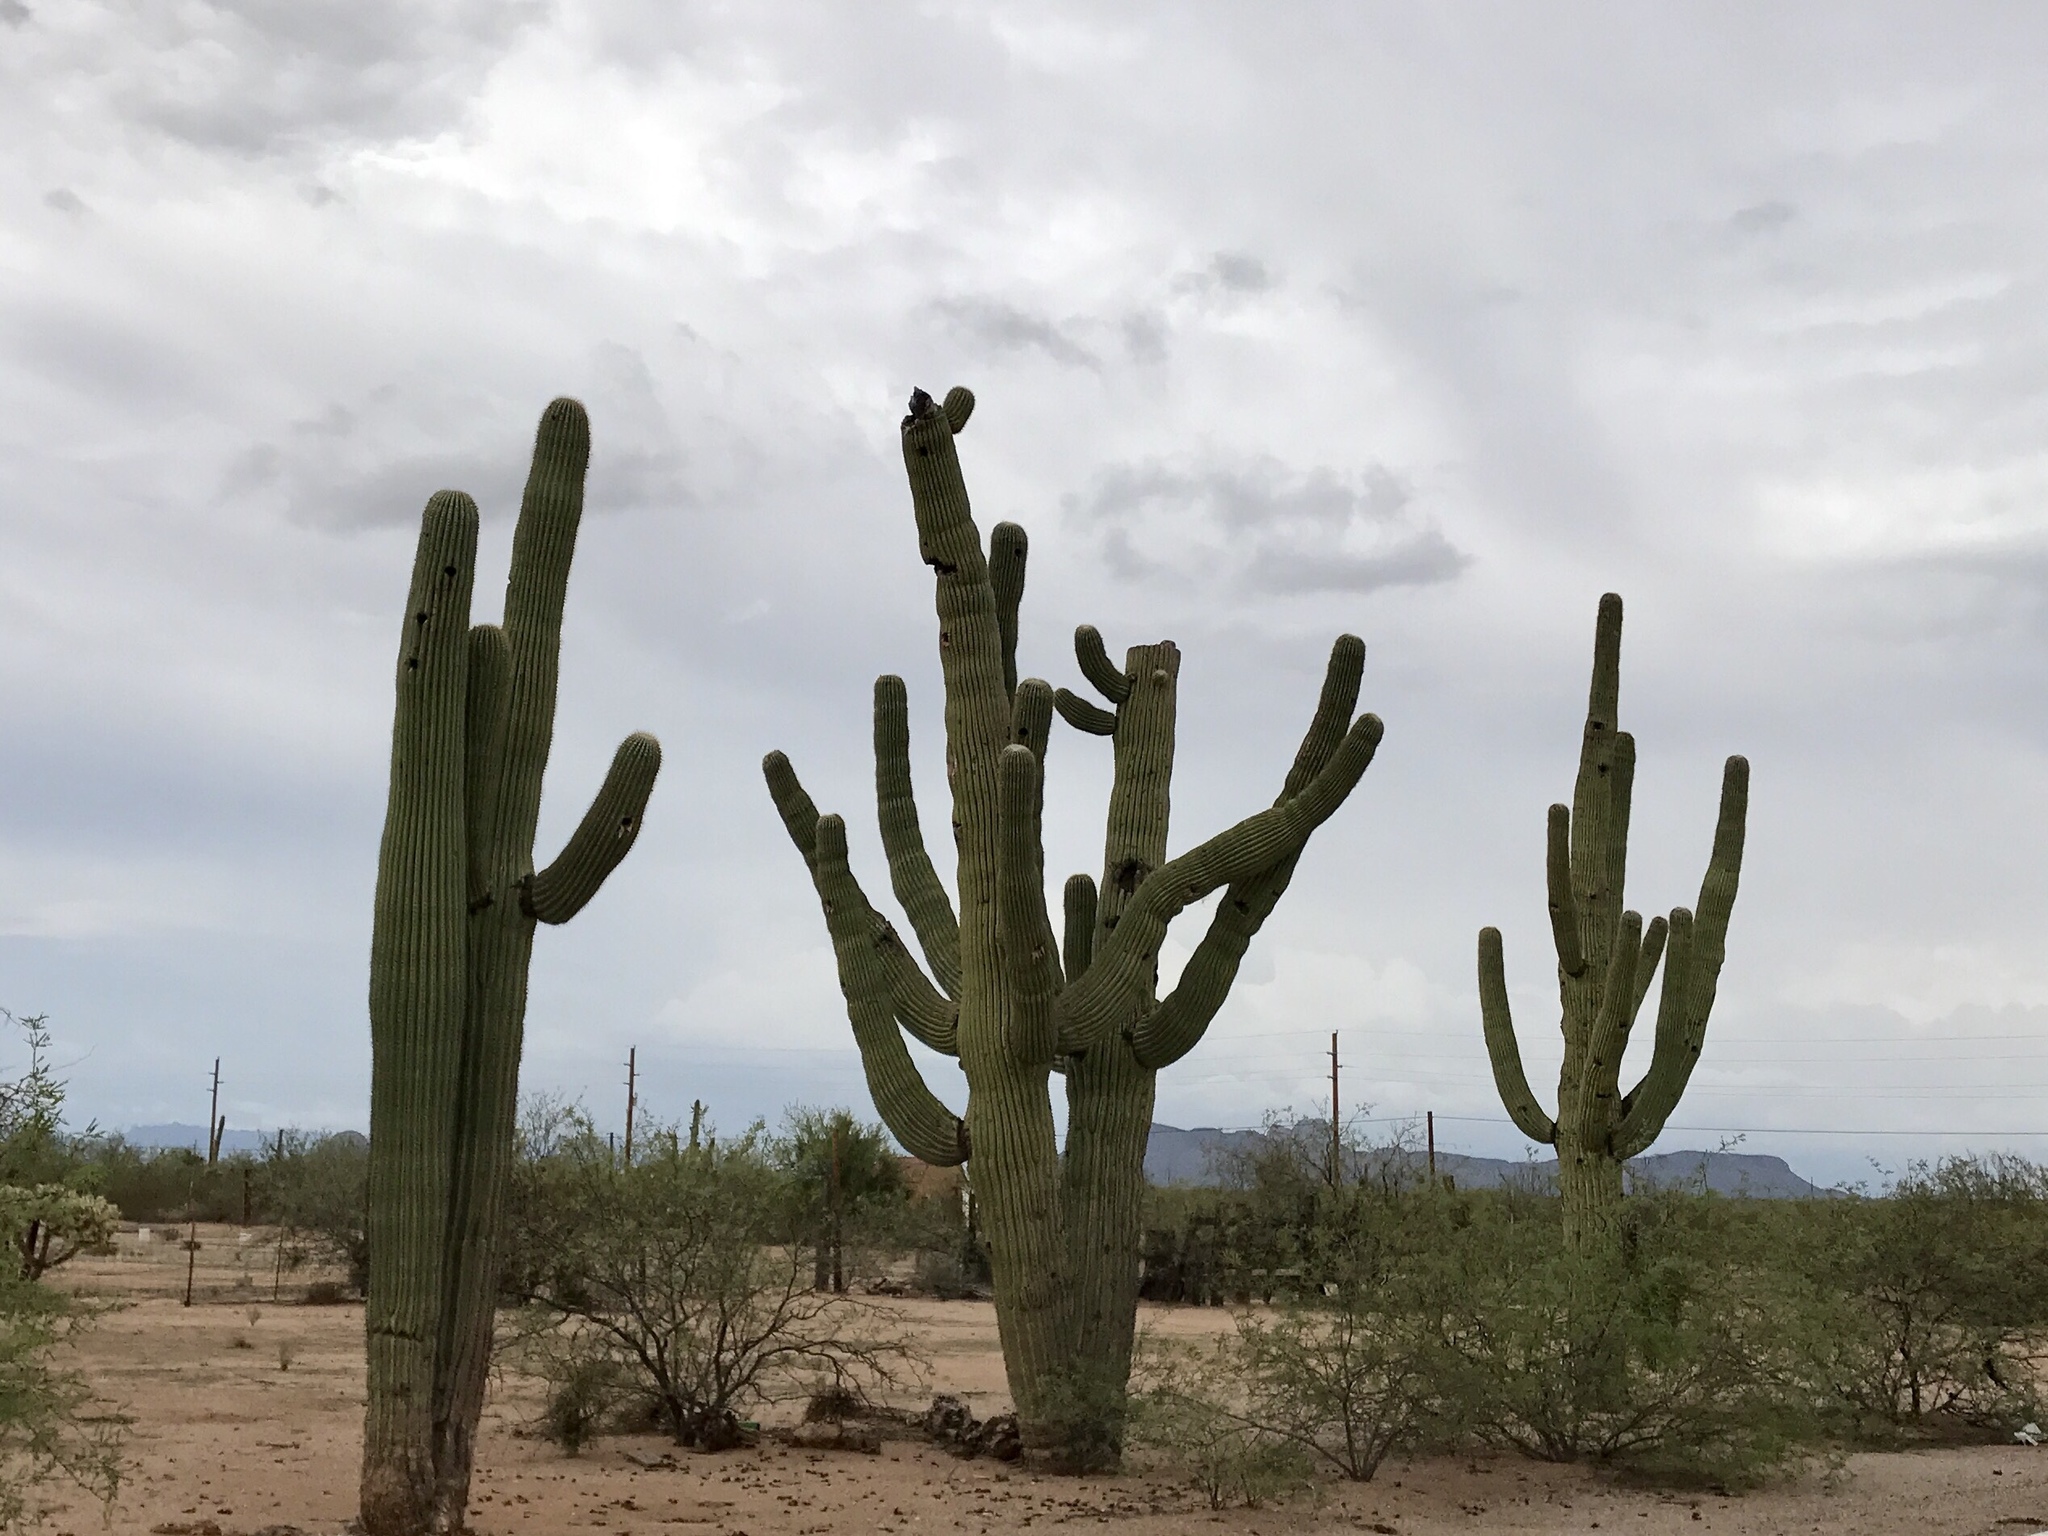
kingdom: Plantae
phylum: Tracheophyta
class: Magnoliopsida
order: Caryophyllales
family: Cactaceae
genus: Carnegiea
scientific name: Carnegiea gigantea
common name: Saguaro
